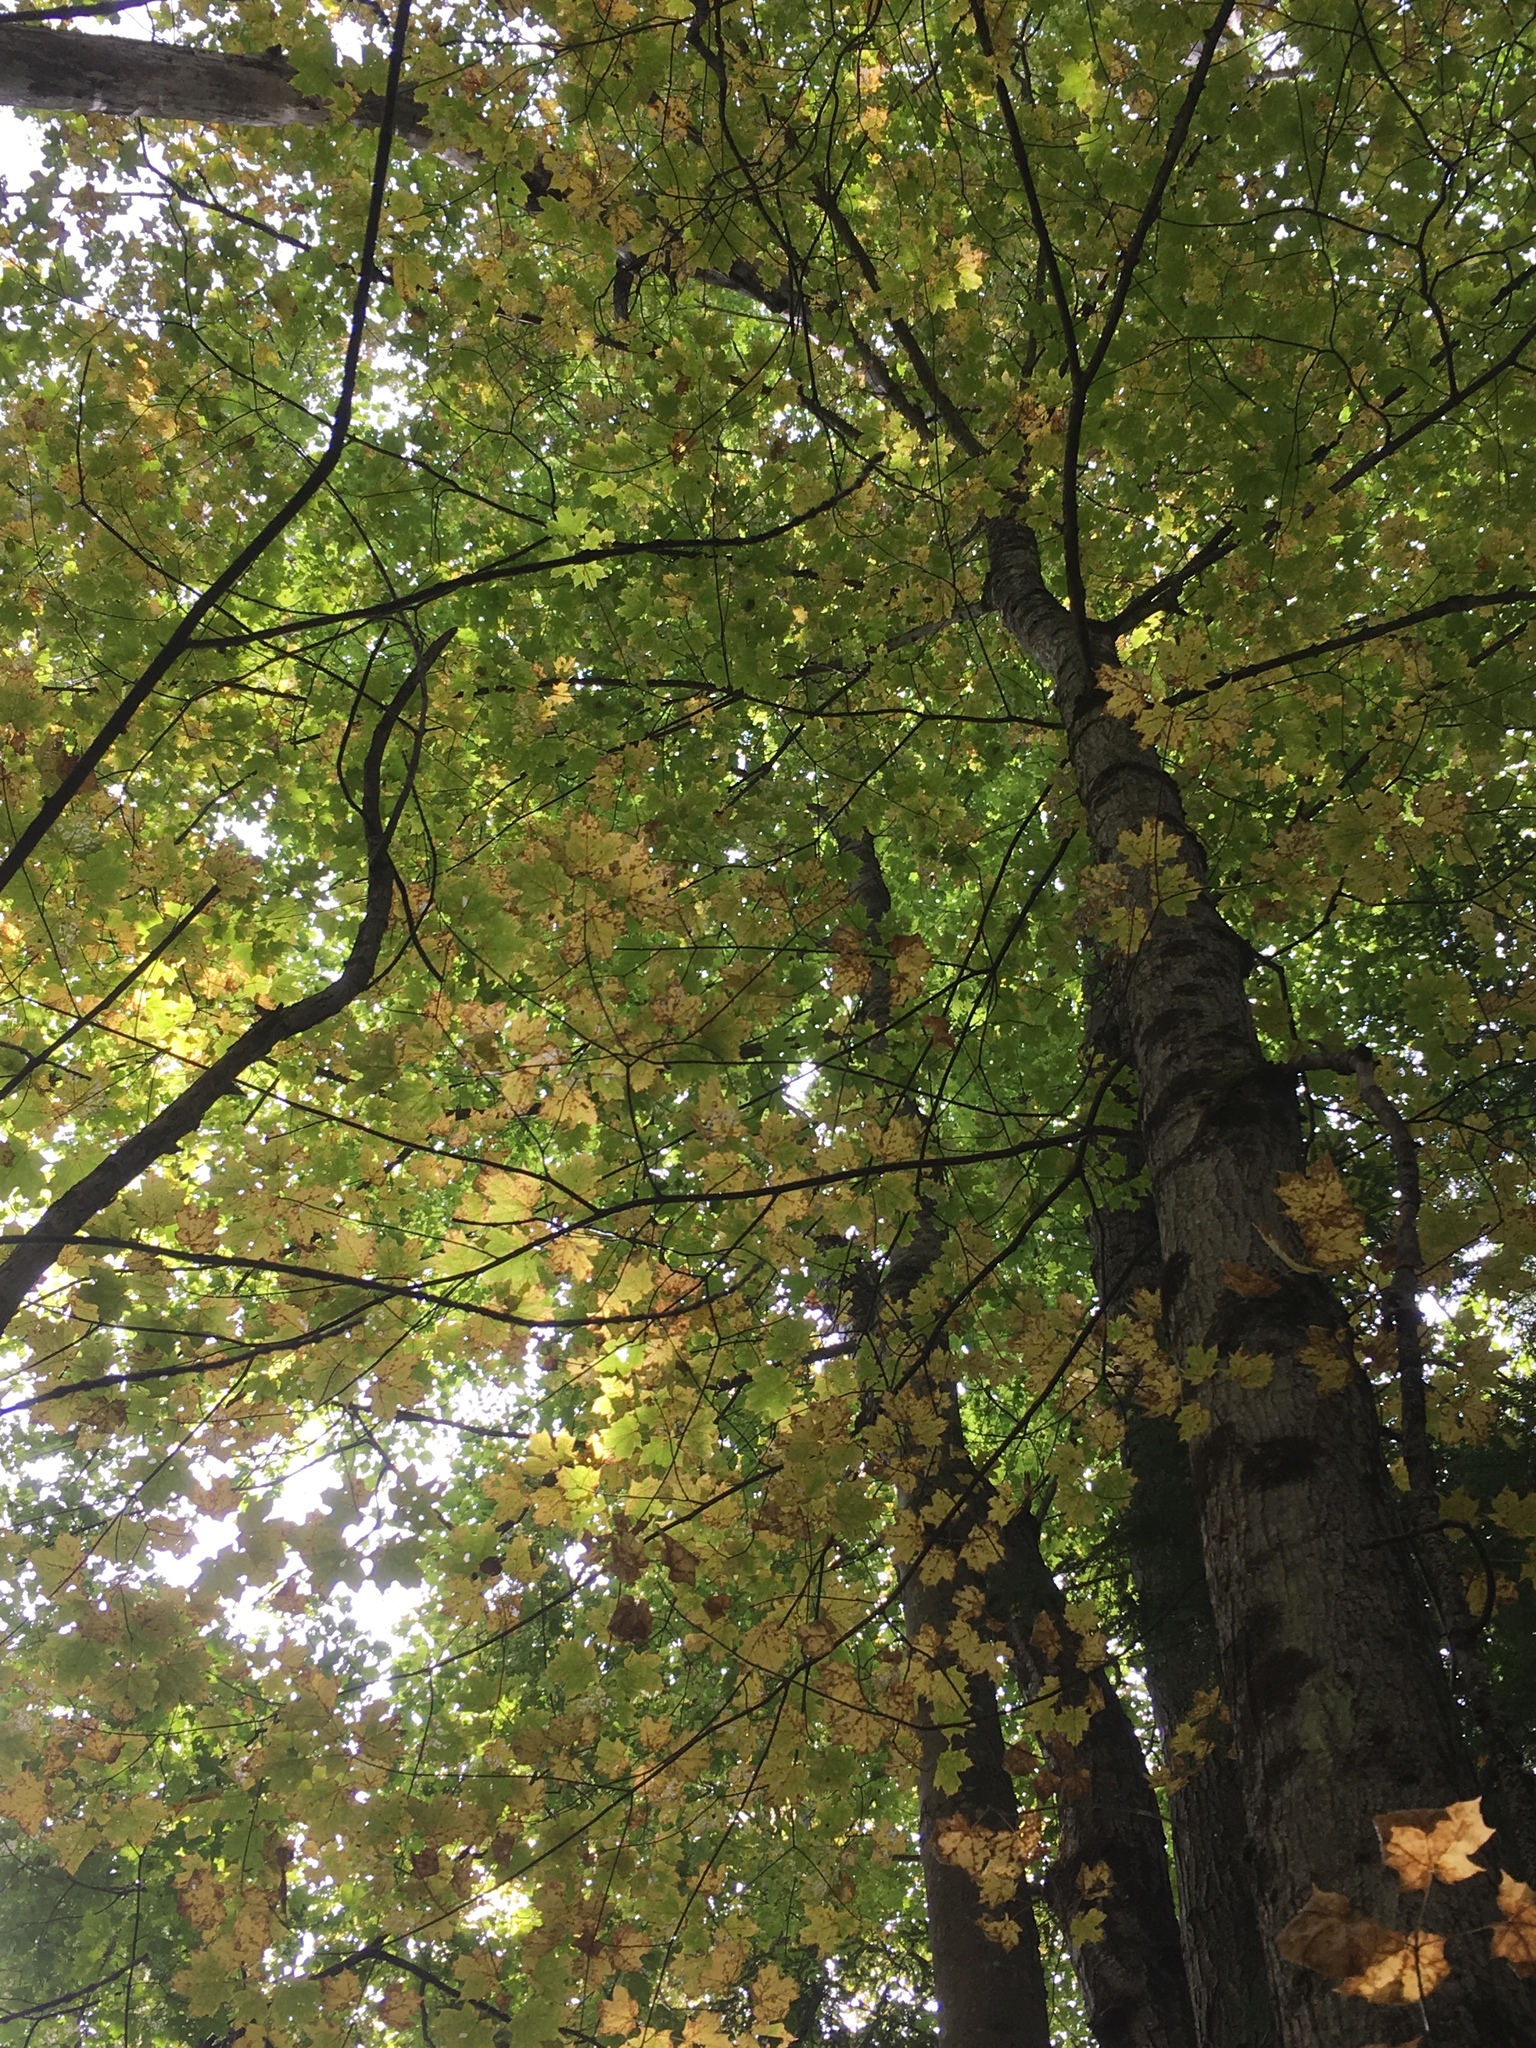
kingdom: Plantae
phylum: Tracheophyta
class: Magnoliopsida
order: Sapindales
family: Sapindaceae
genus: Acer
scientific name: Acer saccharum
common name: Sugar maple
